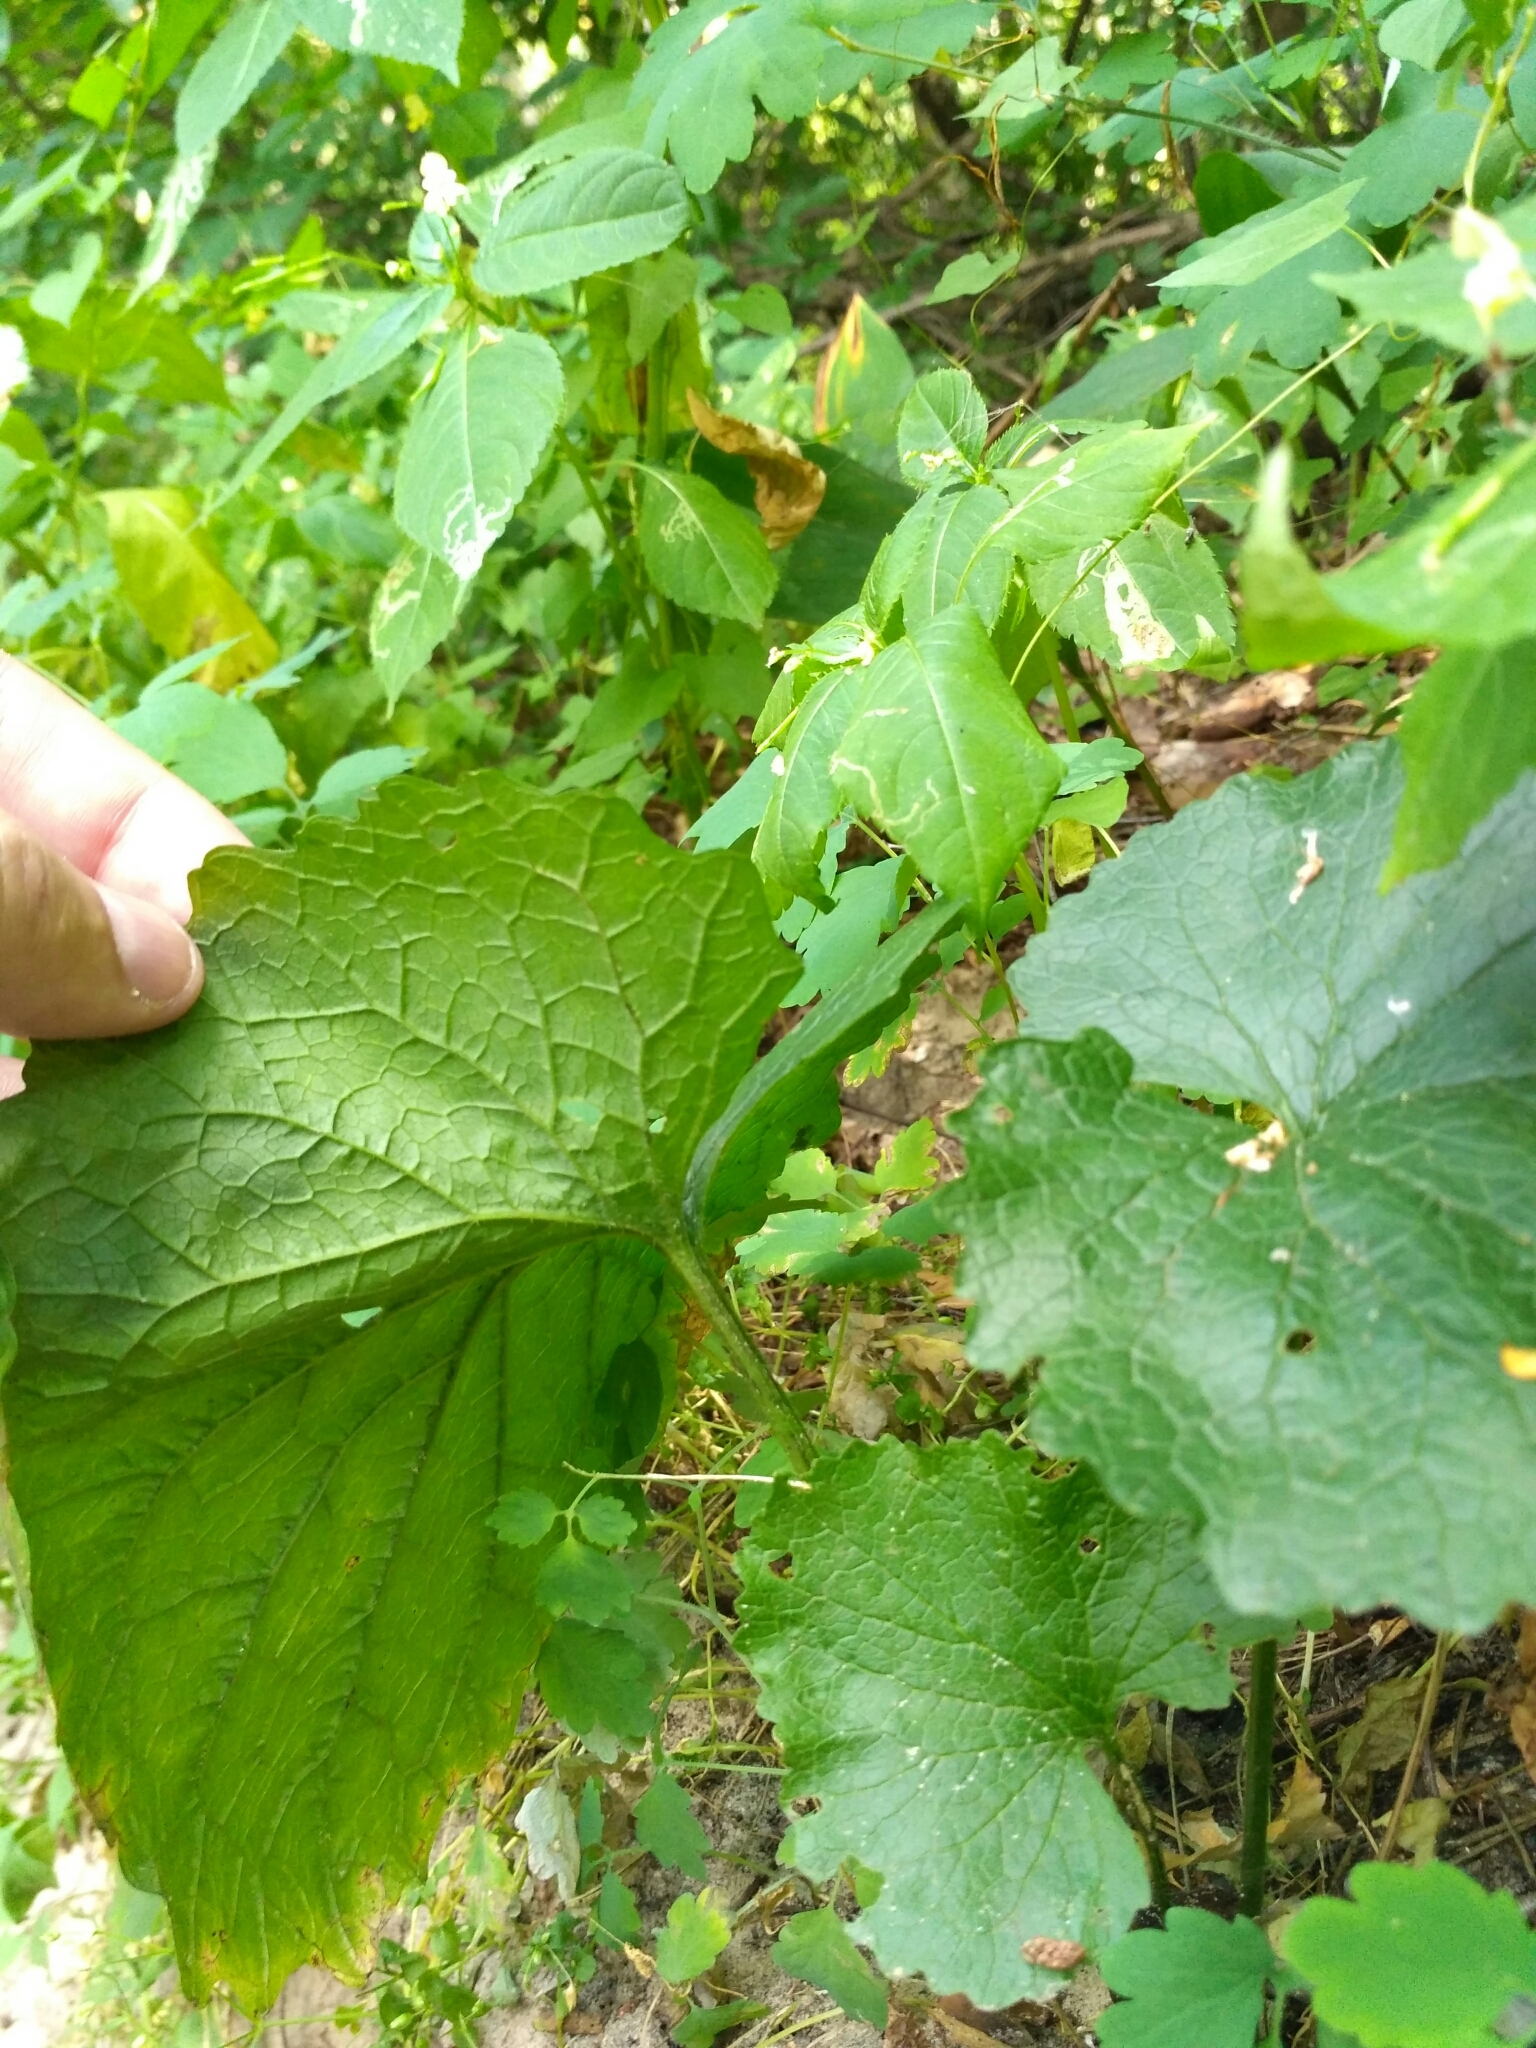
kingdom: Plantae
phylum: Tracheophyta
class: Magnoliopsida
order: Brassicales
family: Brassicaceae
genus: Alliaria
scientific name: Alliaria petiolata
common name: Garlic mustard
